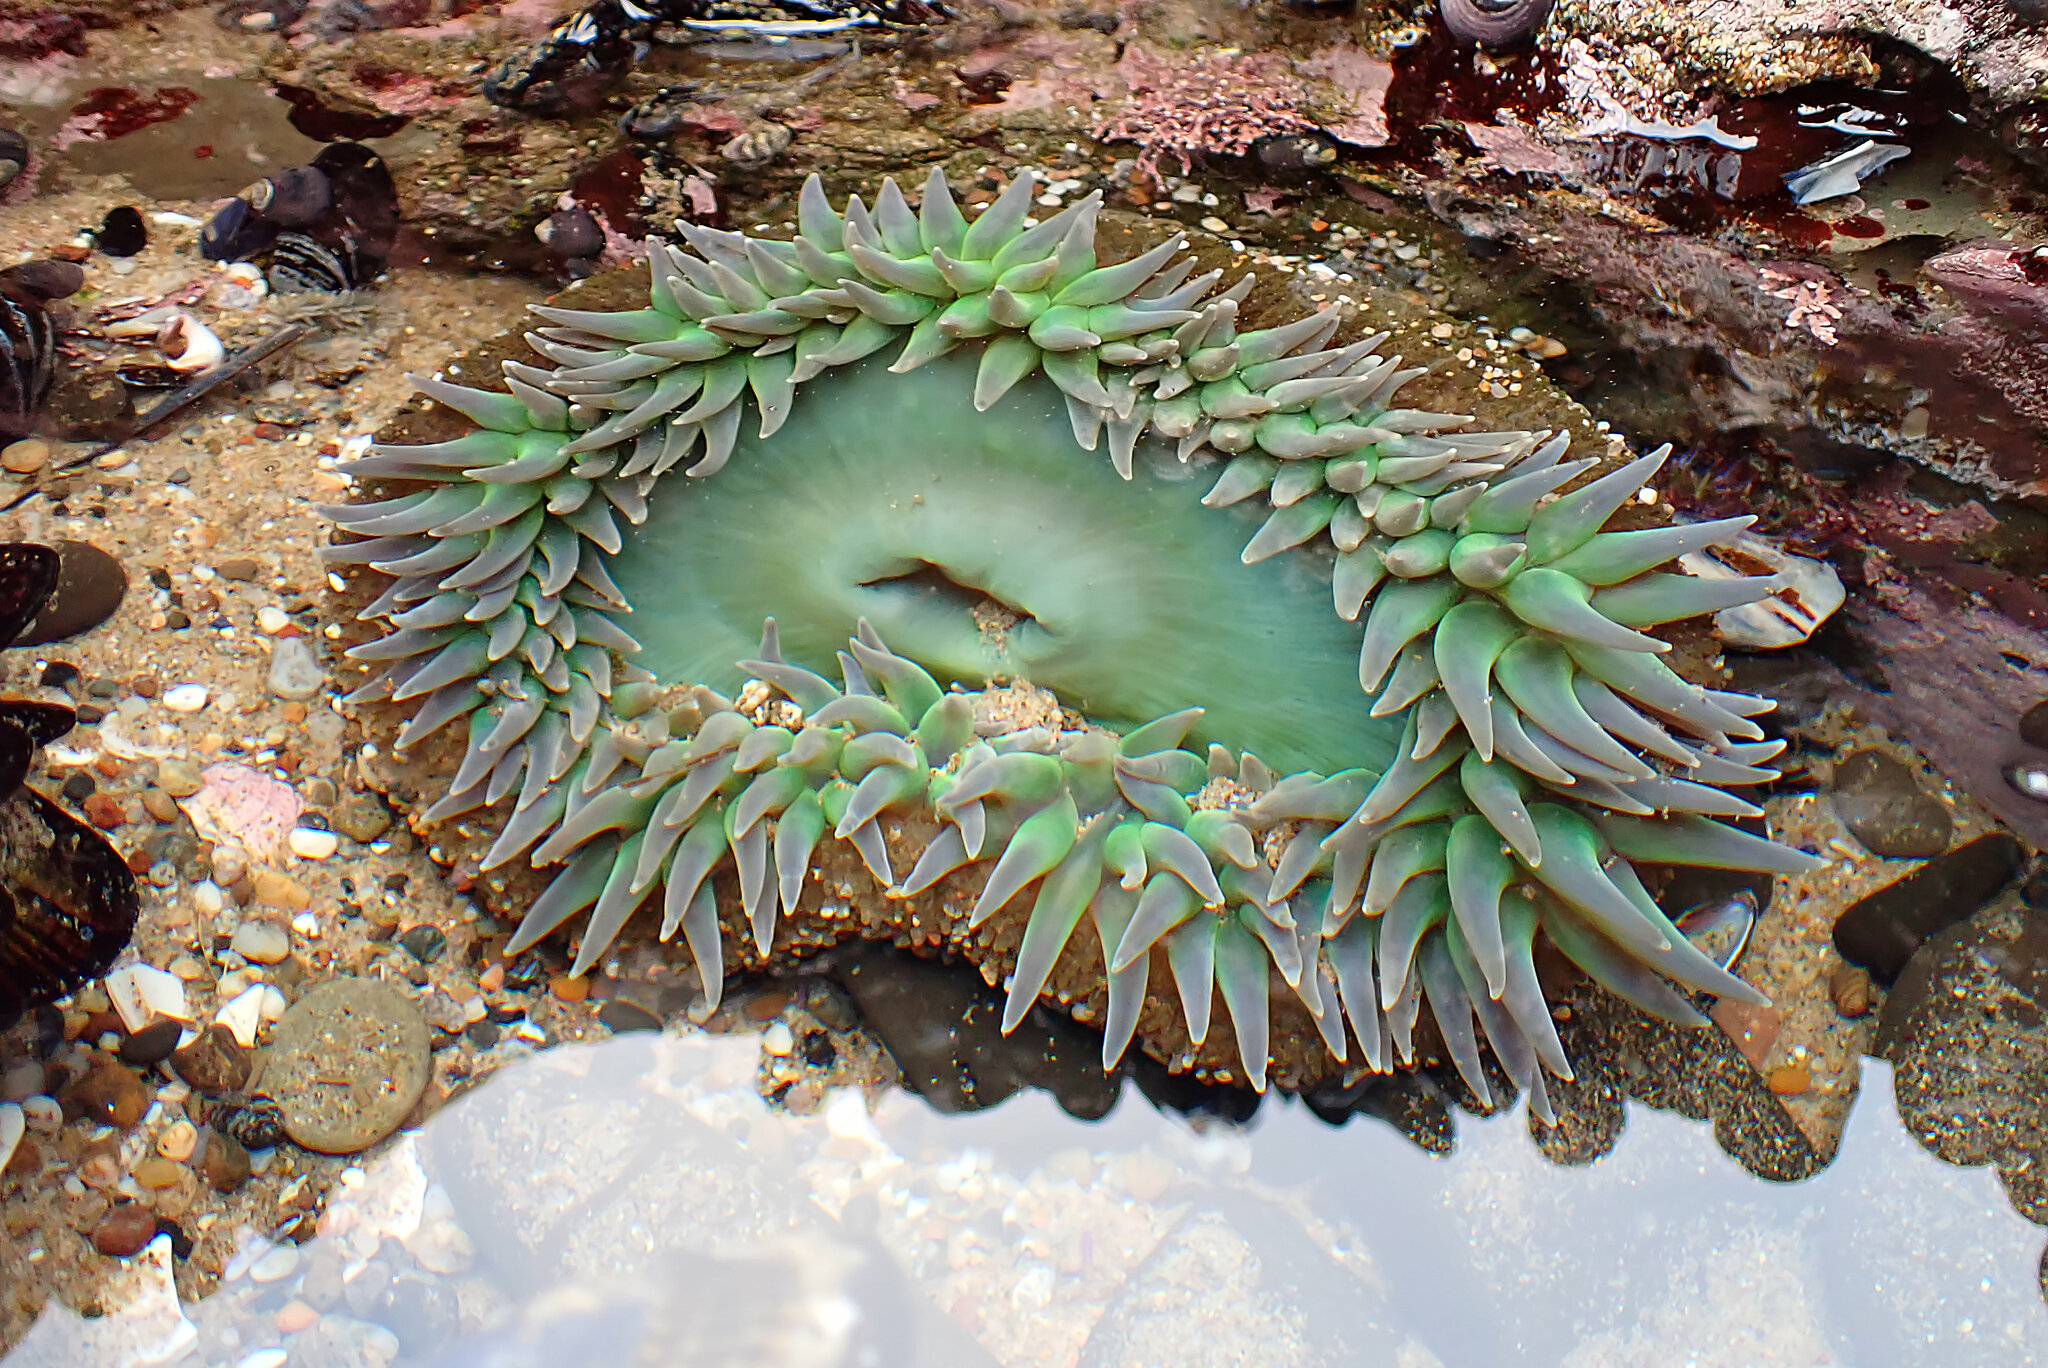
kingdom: Animalia
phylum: Cnidaria
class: Anthozoa
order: Actiniaria
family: Actiniidae
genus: Anthopleura
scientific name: Anthopleura xanthogrammica
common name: Giant green anemone
